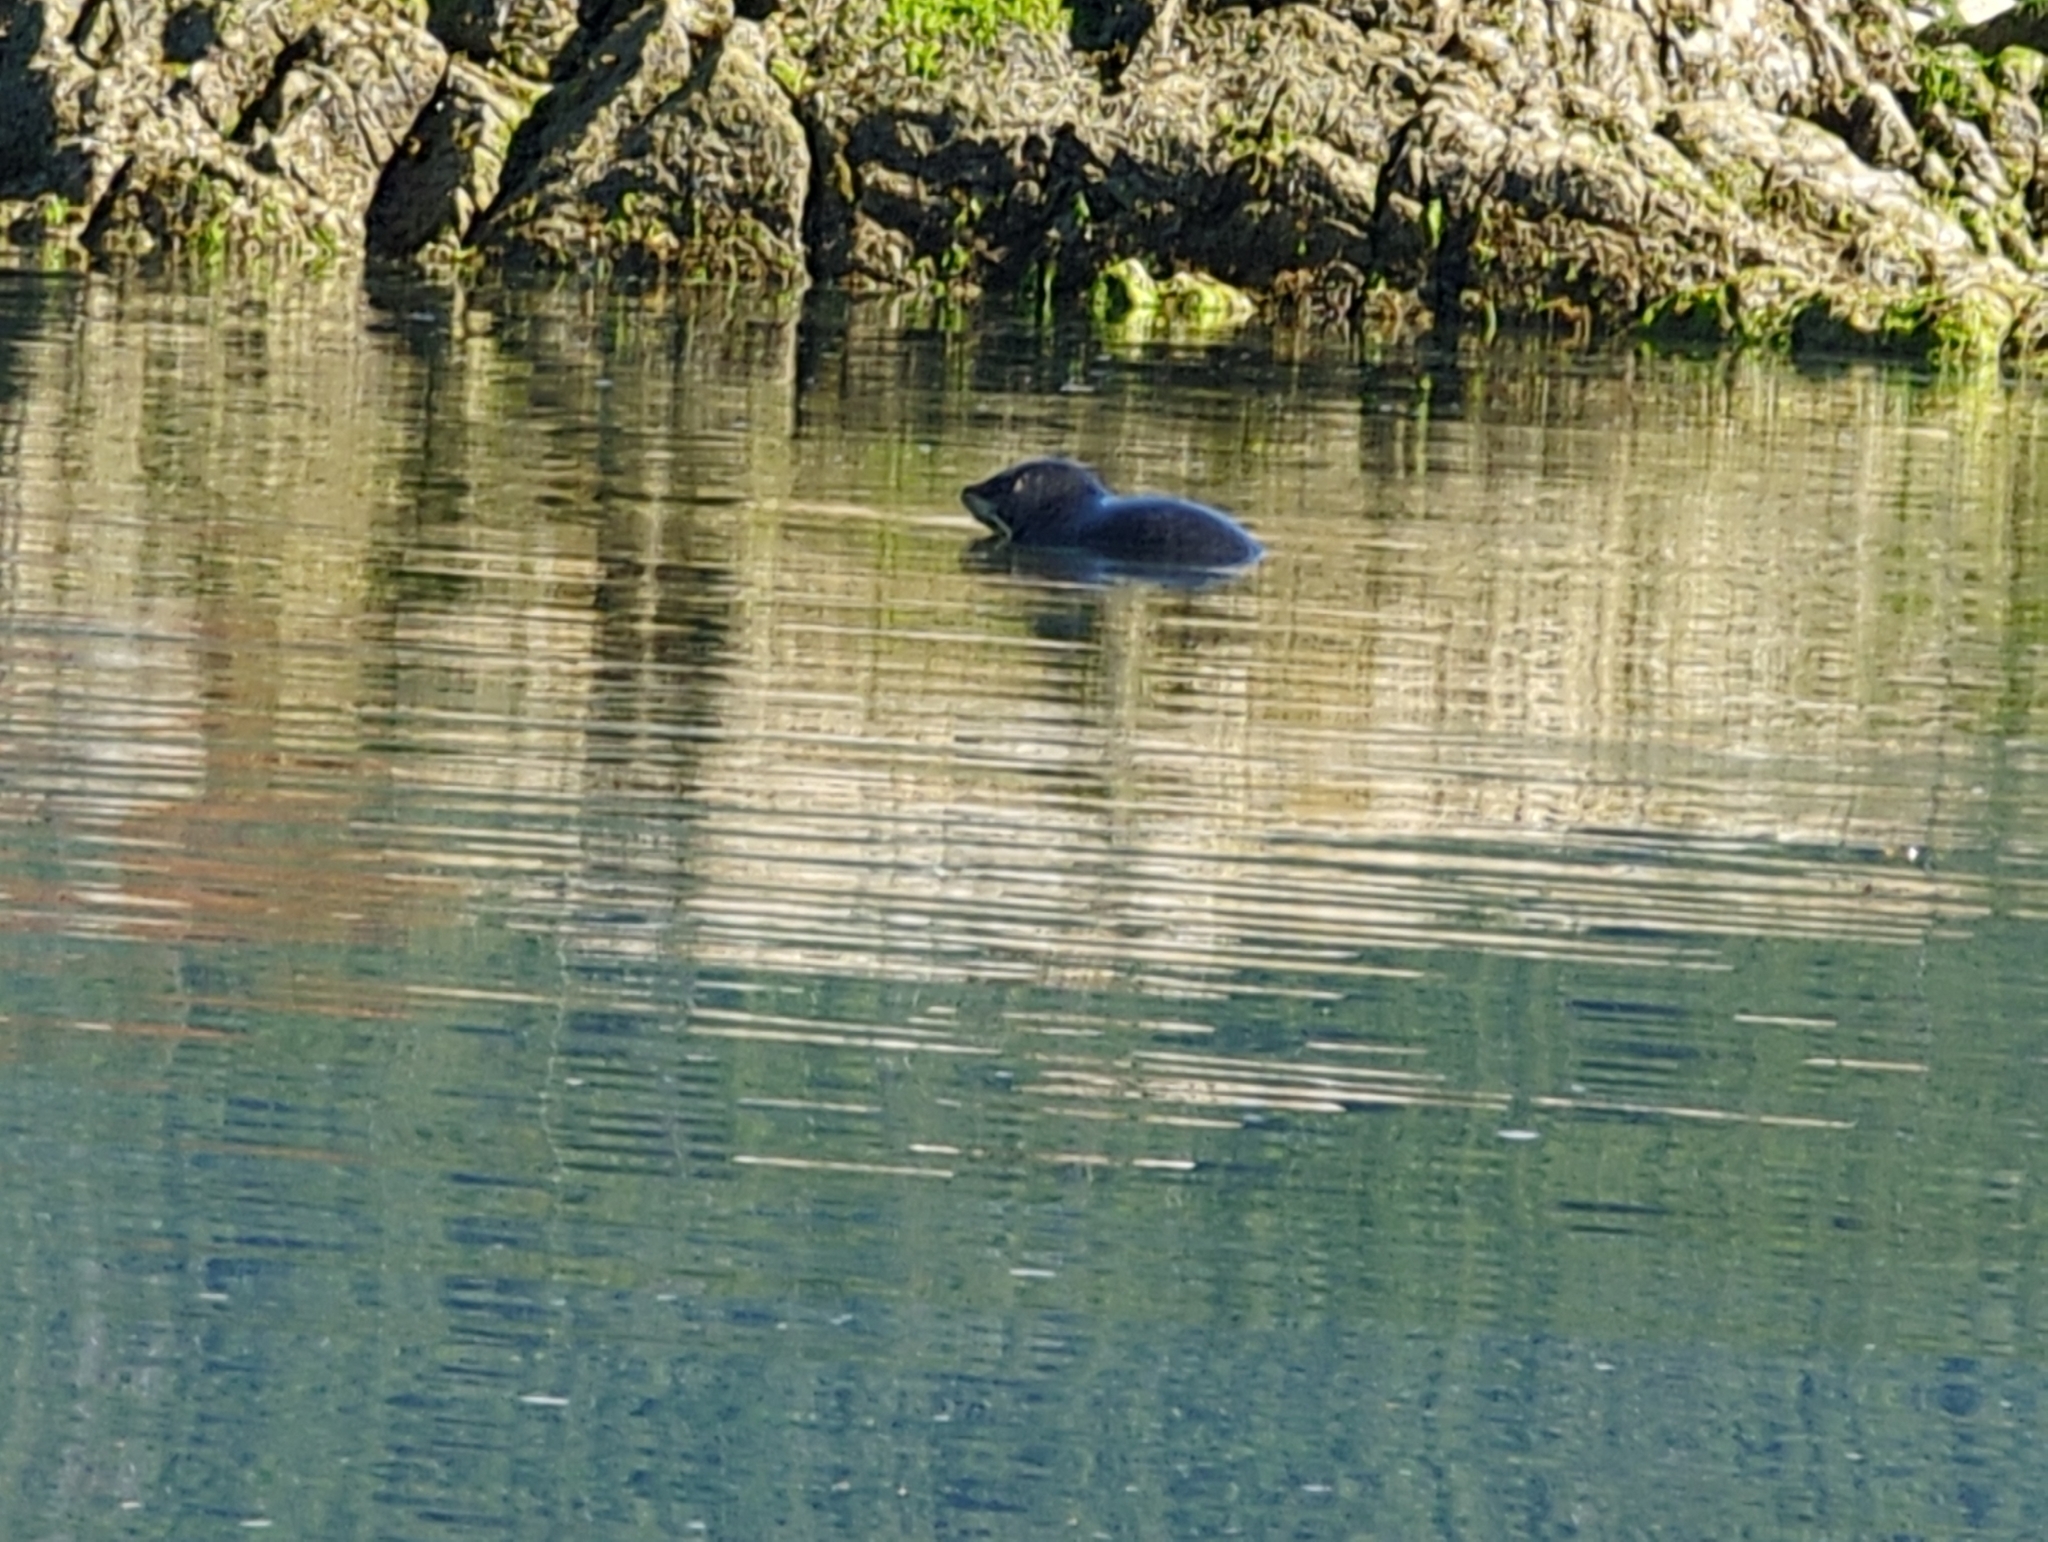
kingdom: Animalia
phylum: Chordata
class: Mammalia
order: Carnivora
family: Phocidae
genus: Phoca
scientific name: Phoca vitulina
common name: Harbor seal
